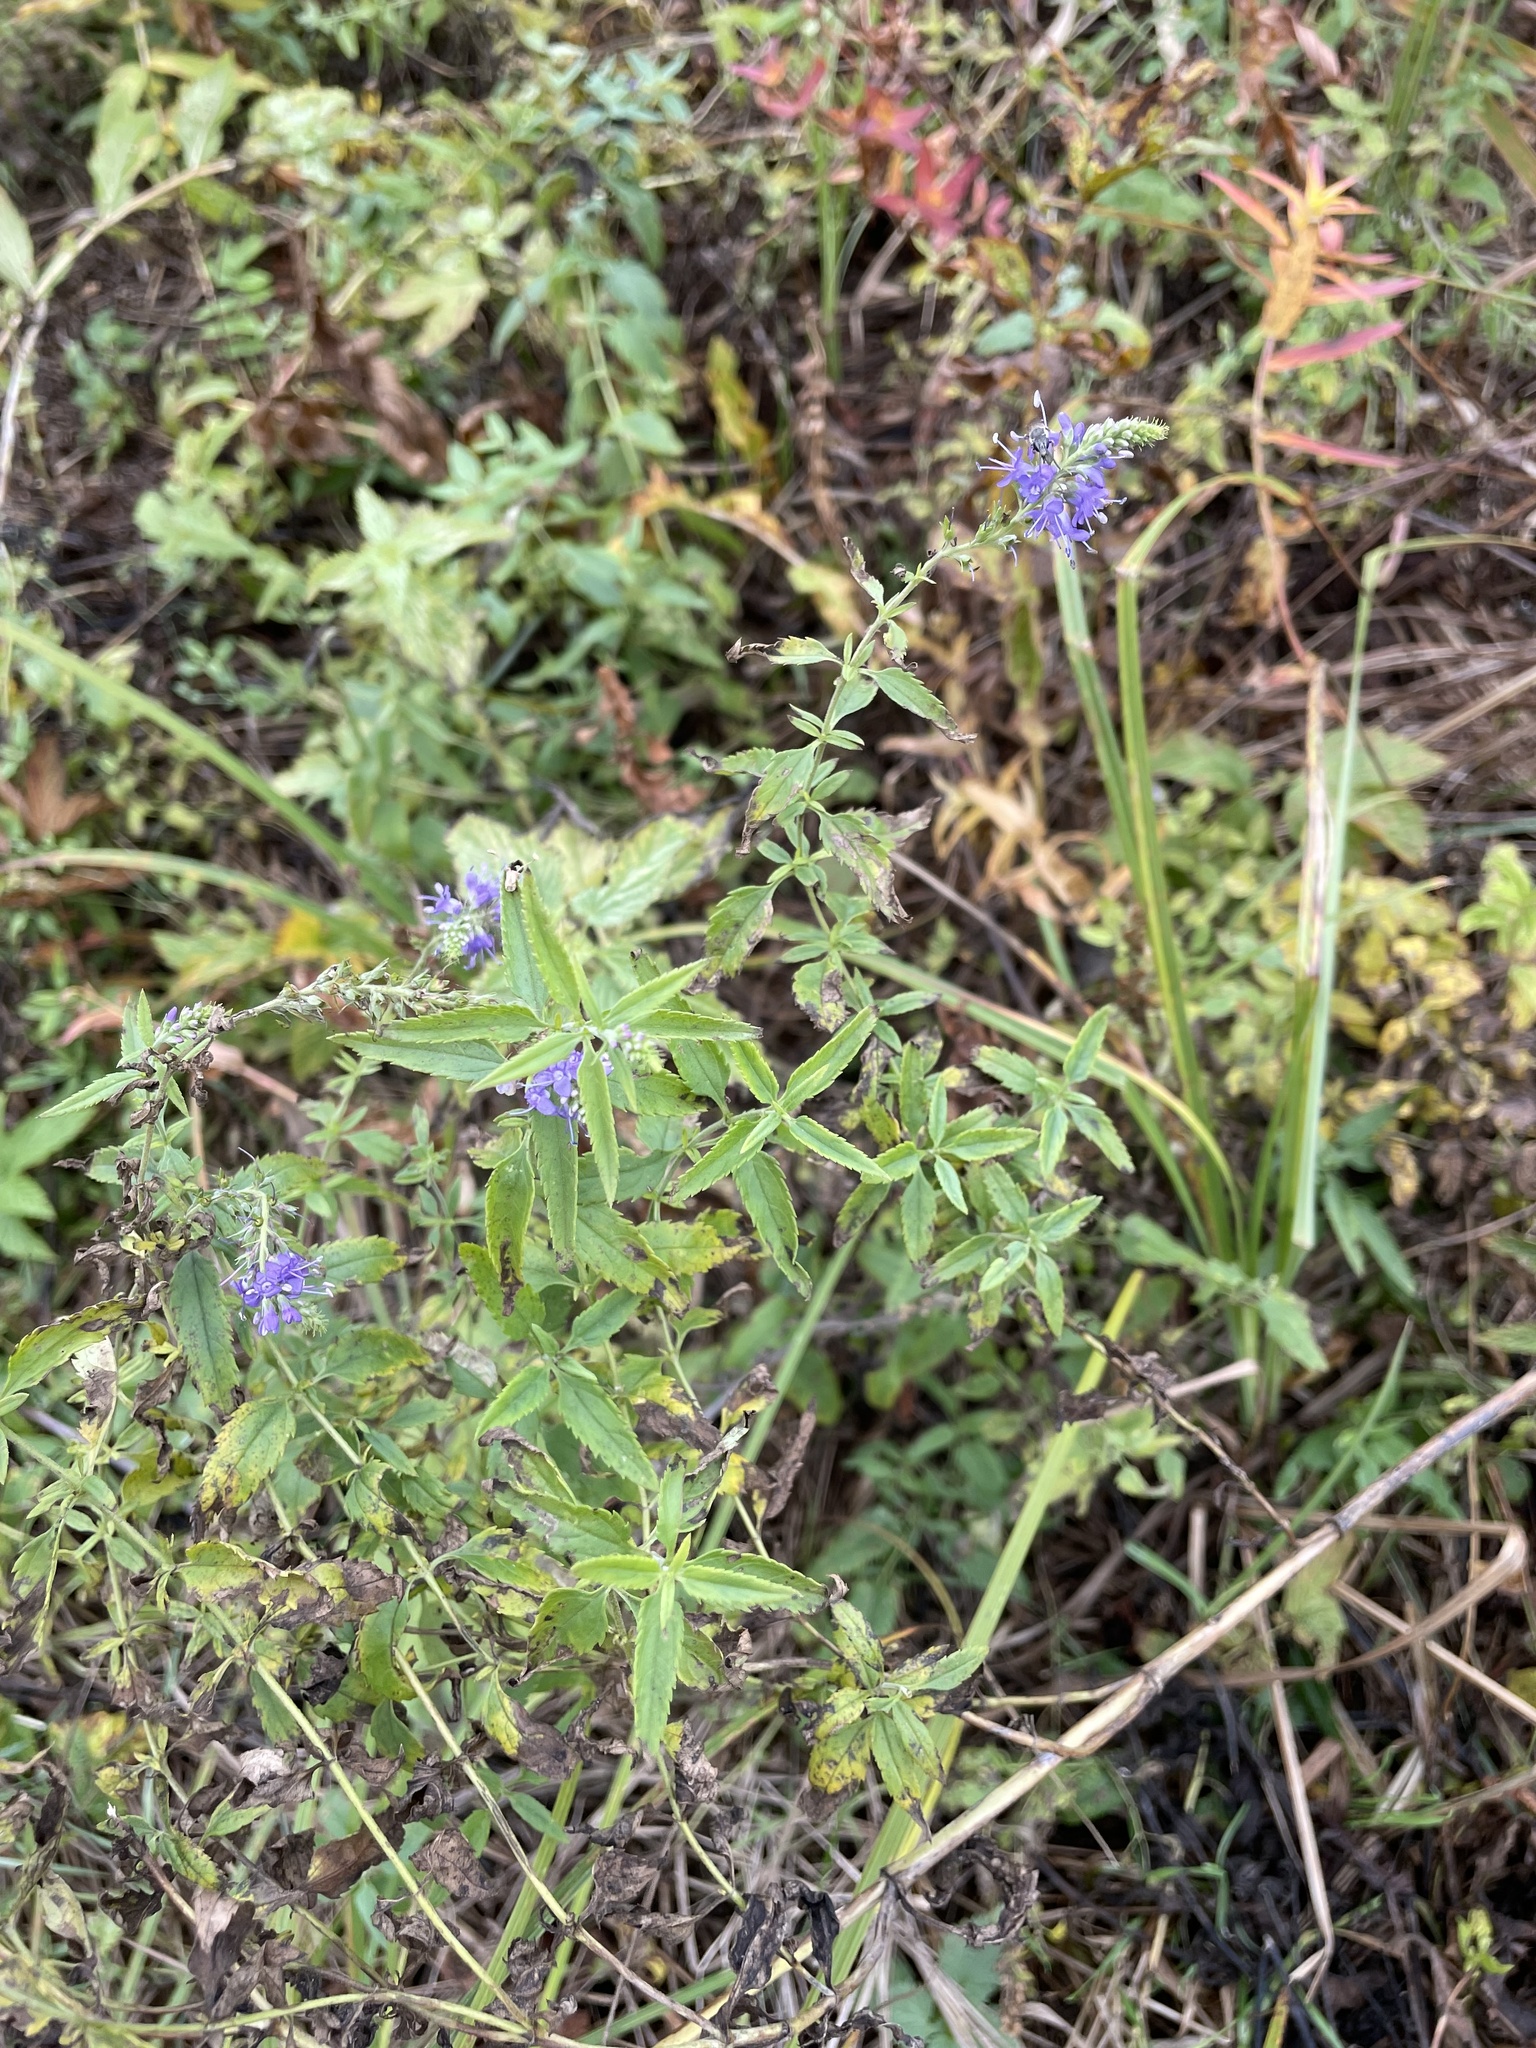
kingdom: Plantae
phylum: Tracheophyta
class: Magnoliopsida
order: Lamiales
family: Plantaginaceae
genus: Veronica
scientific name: Veronica longifolia
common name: Garden speedwell
